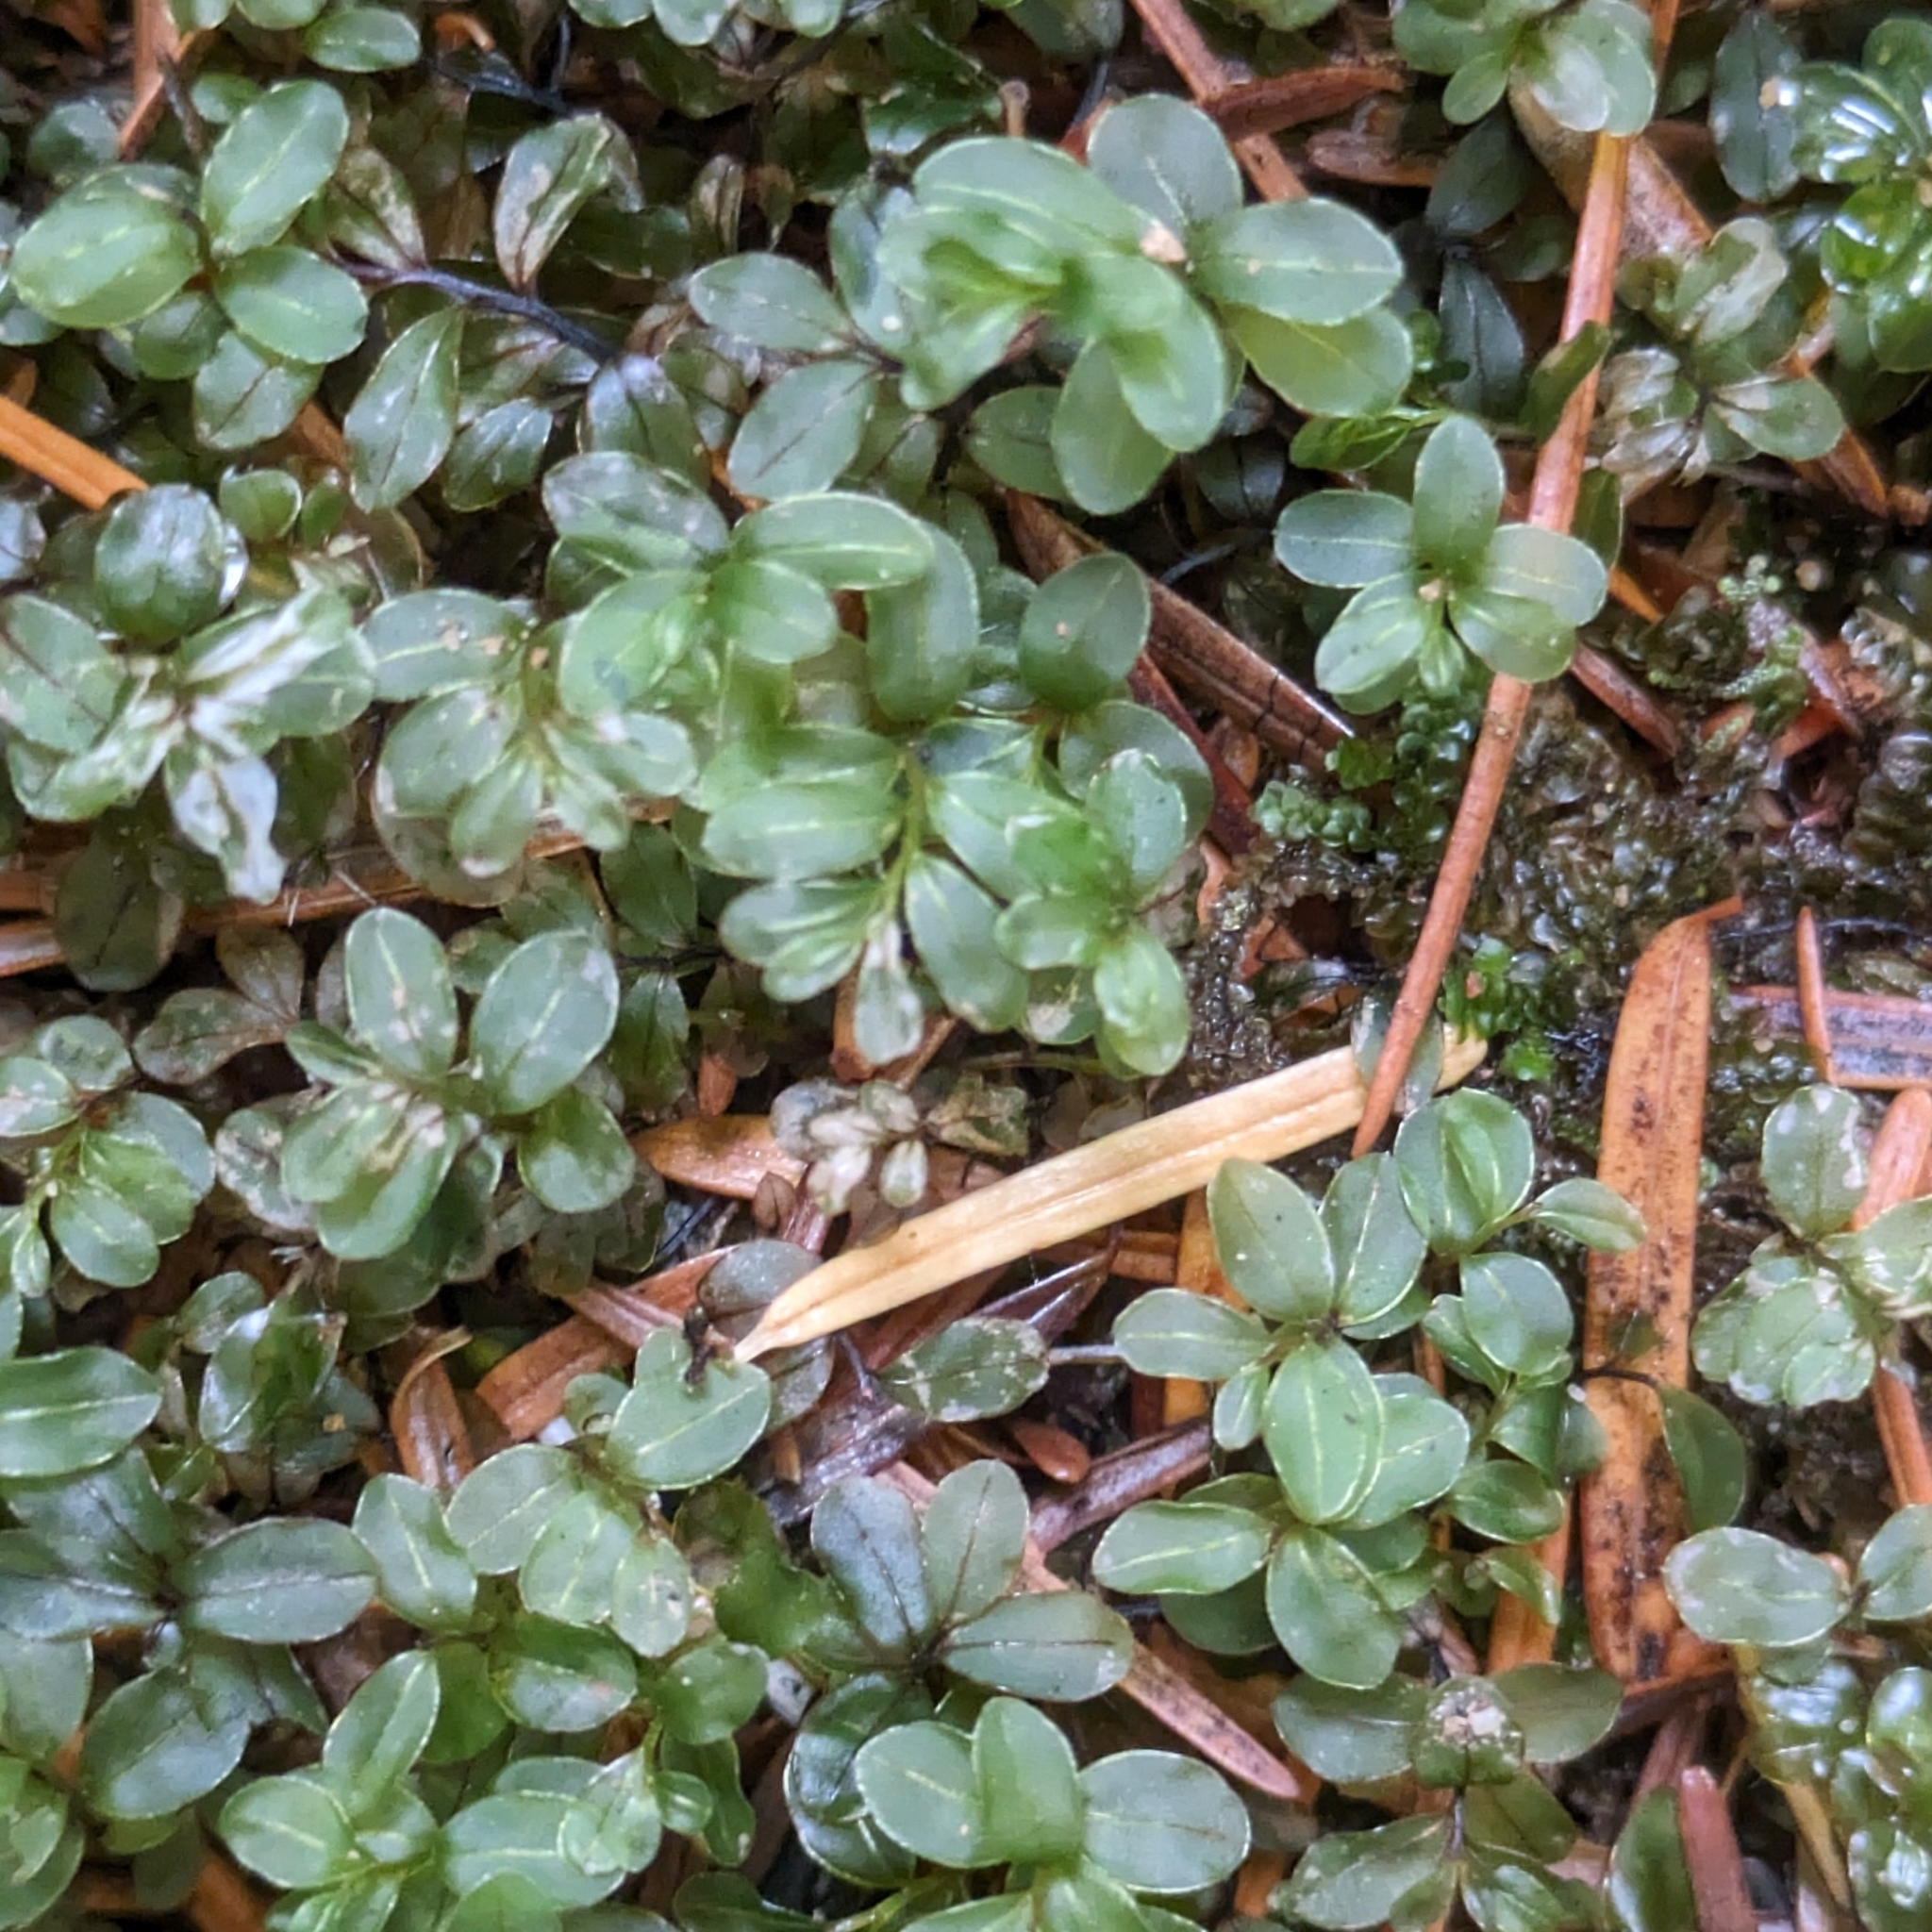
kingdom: Plantae
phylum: Bryophyta
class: Bryopsida
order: Bryales
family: Mniaceae
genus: Rhizomnium
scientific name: Rhizomnium glabrescens
